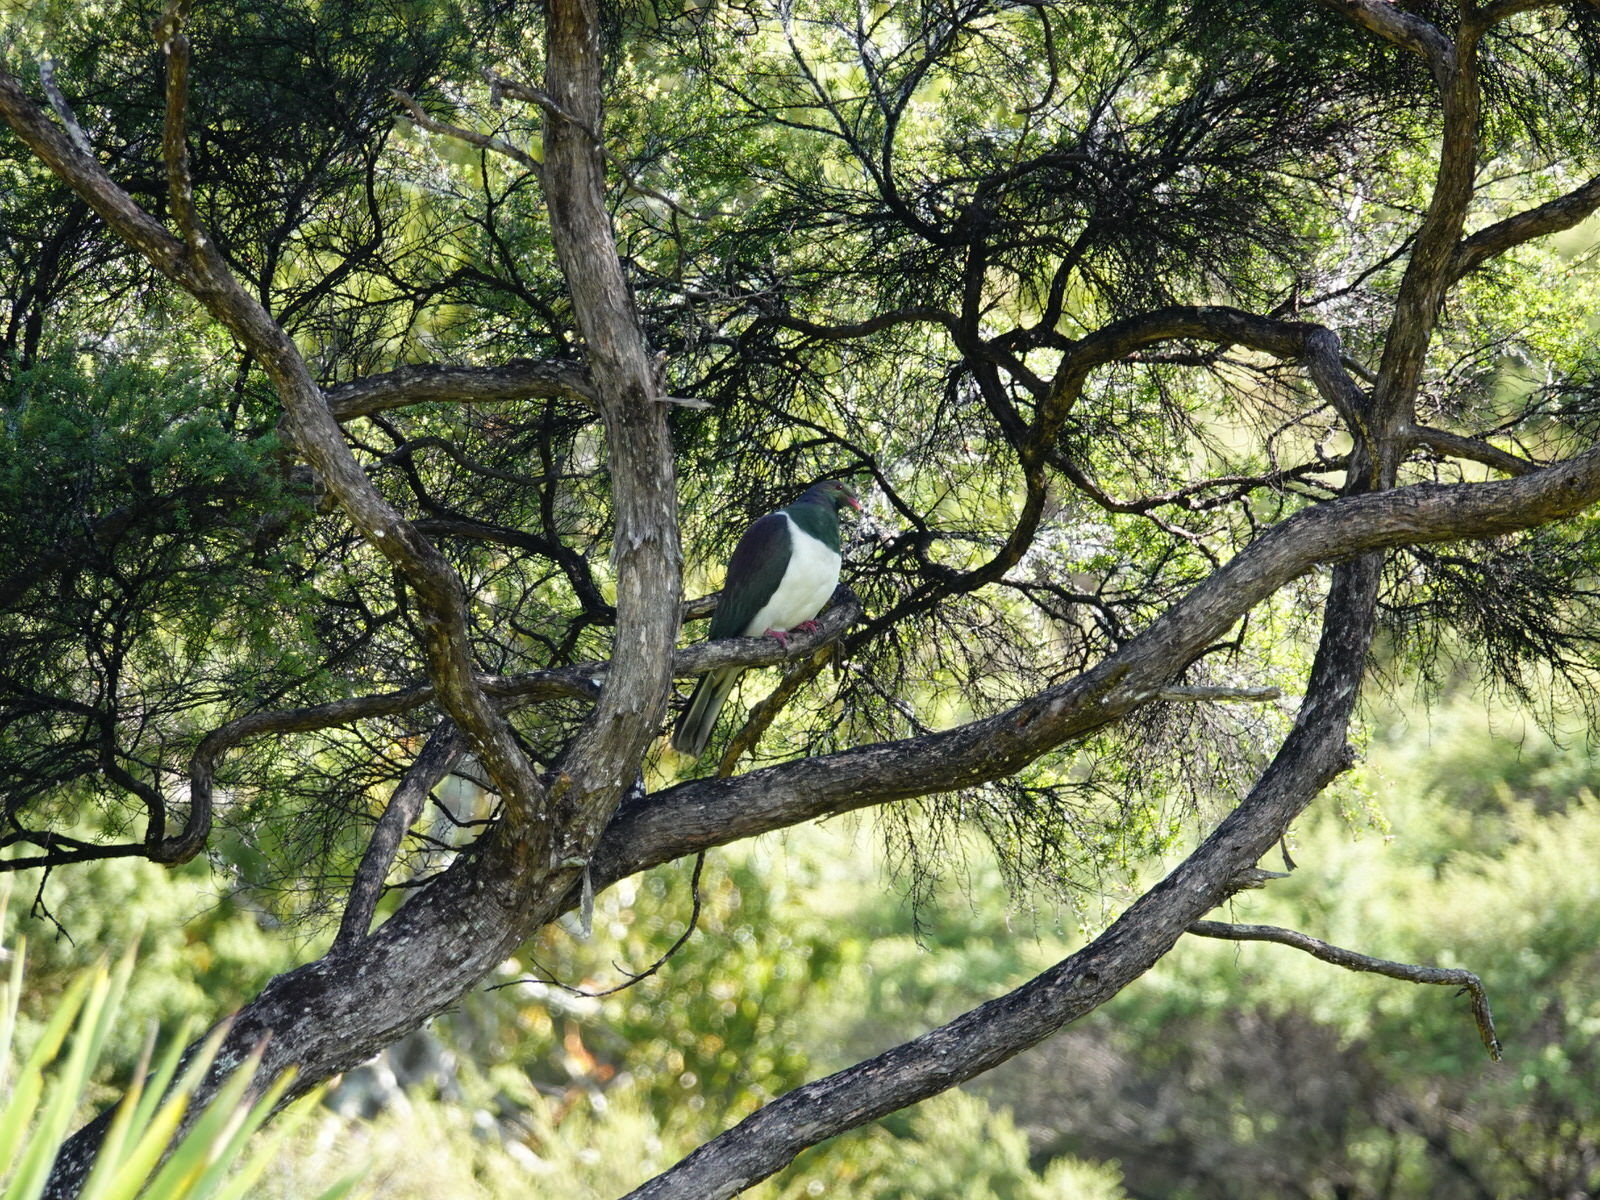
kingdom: Animalia
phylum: Chordata
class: Aves
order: Columbiformes
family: Columbidae
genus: Hemiphaga
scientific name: Hemiphaga novaeseelandiae
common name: New zealand pigeon
